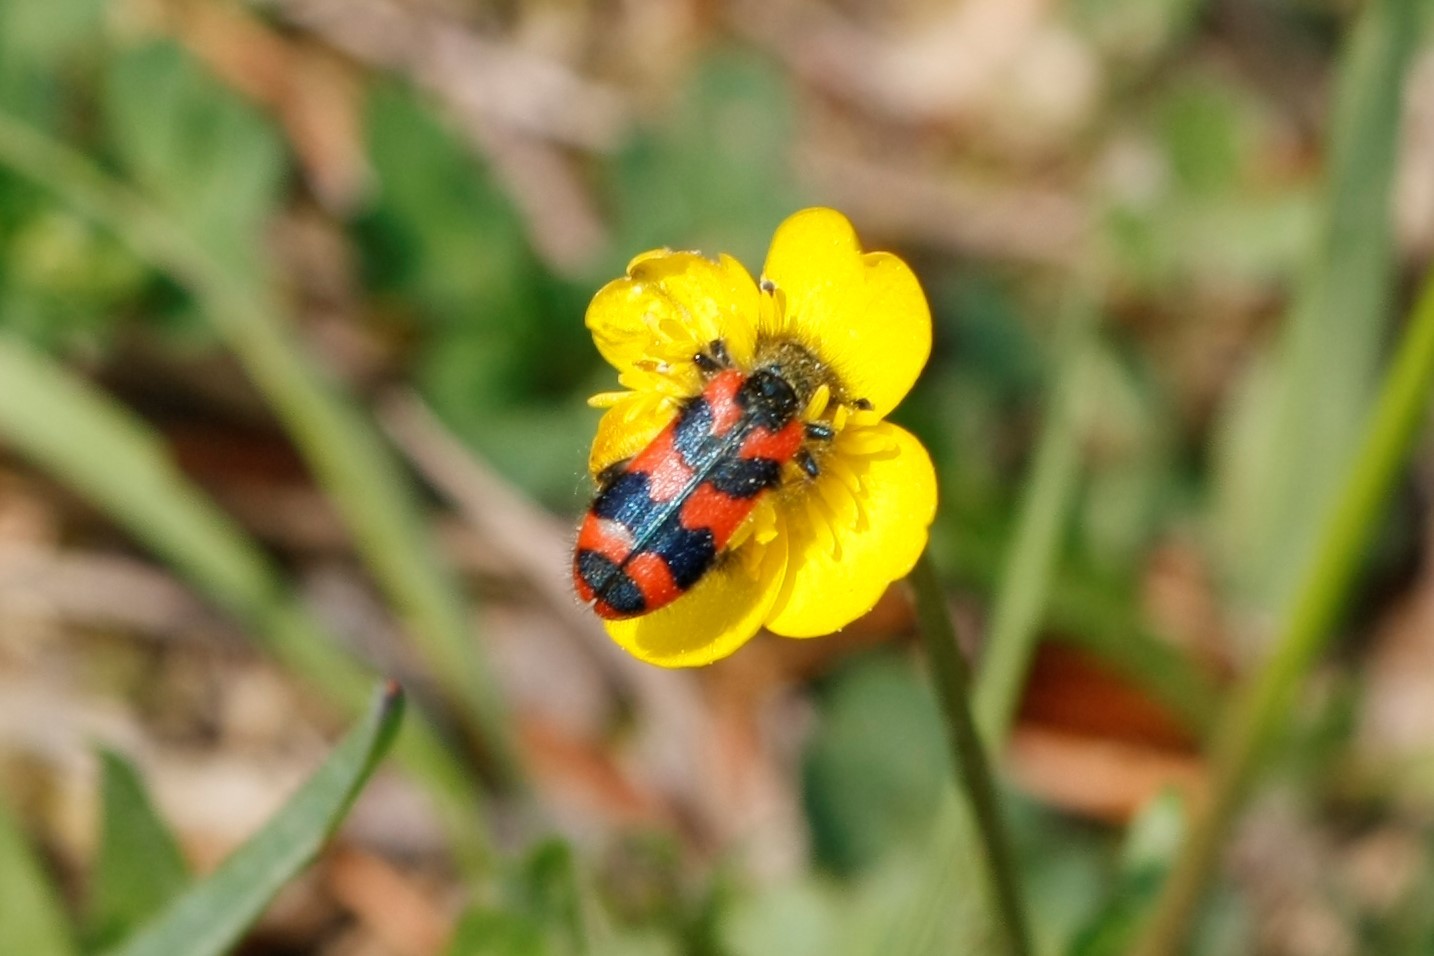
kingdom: Animalia
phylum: Arthropoda
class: Insecta
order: Coleoptera
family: Cleridae
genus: Trichodes
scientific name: Trichodes alvearius
